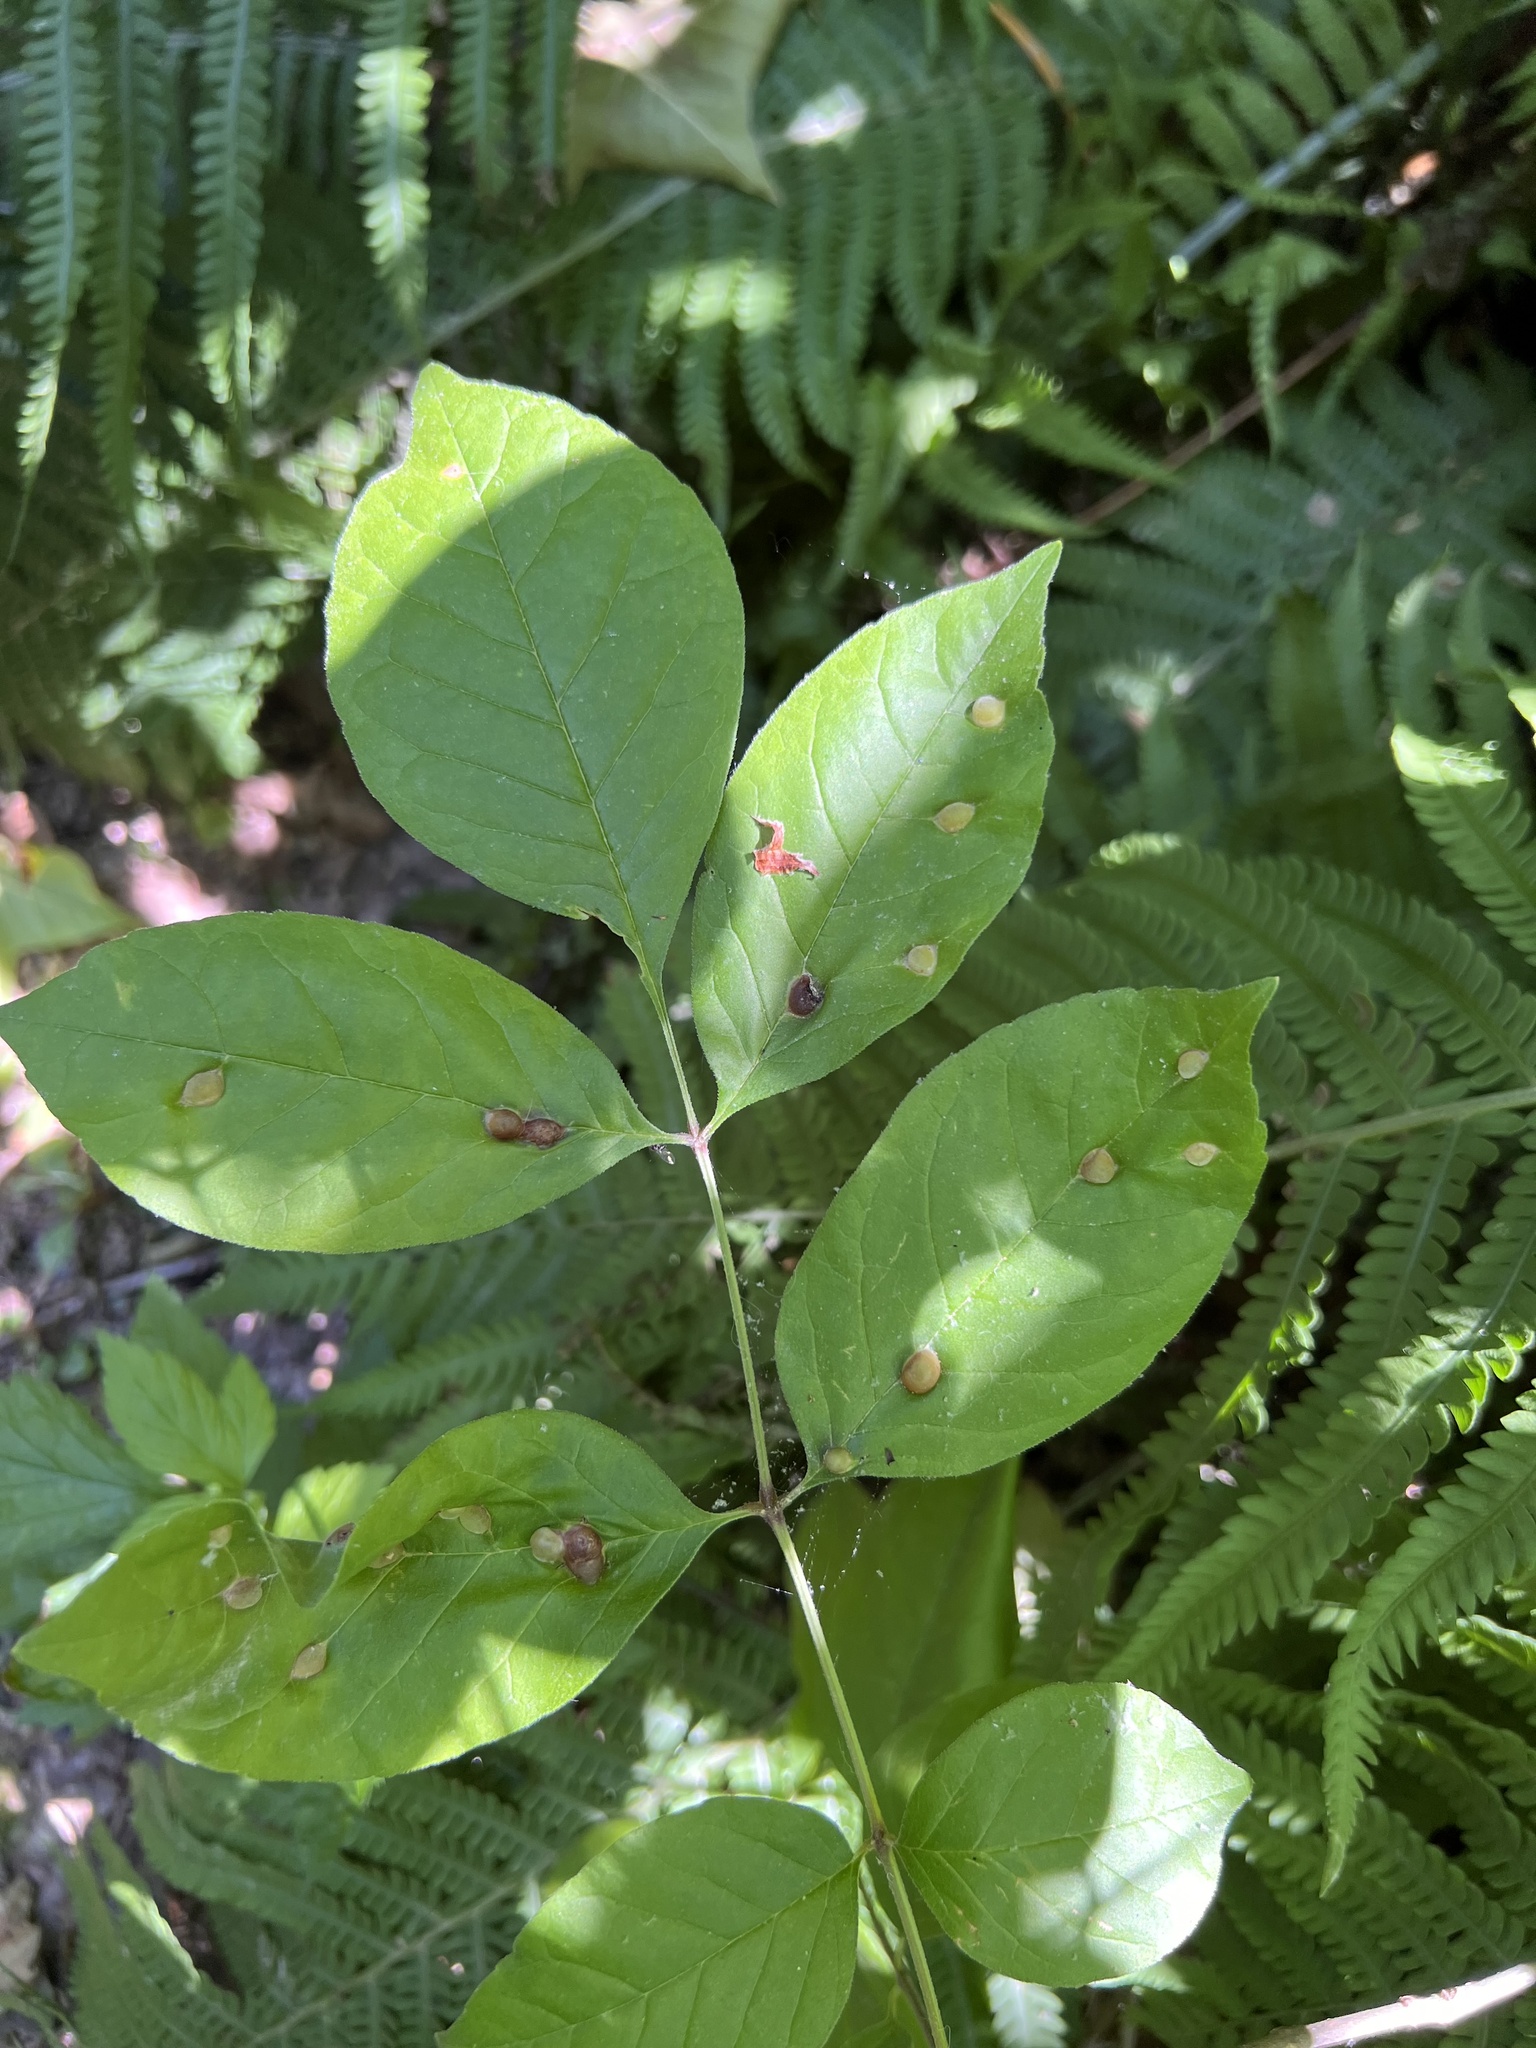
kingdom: Animalia
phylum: Arthropoda
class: Insecta
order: Diptera
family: Cecidomyiidae
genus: Dasineura
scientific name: Dasineura pellex
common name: Ash bullet gall midge
